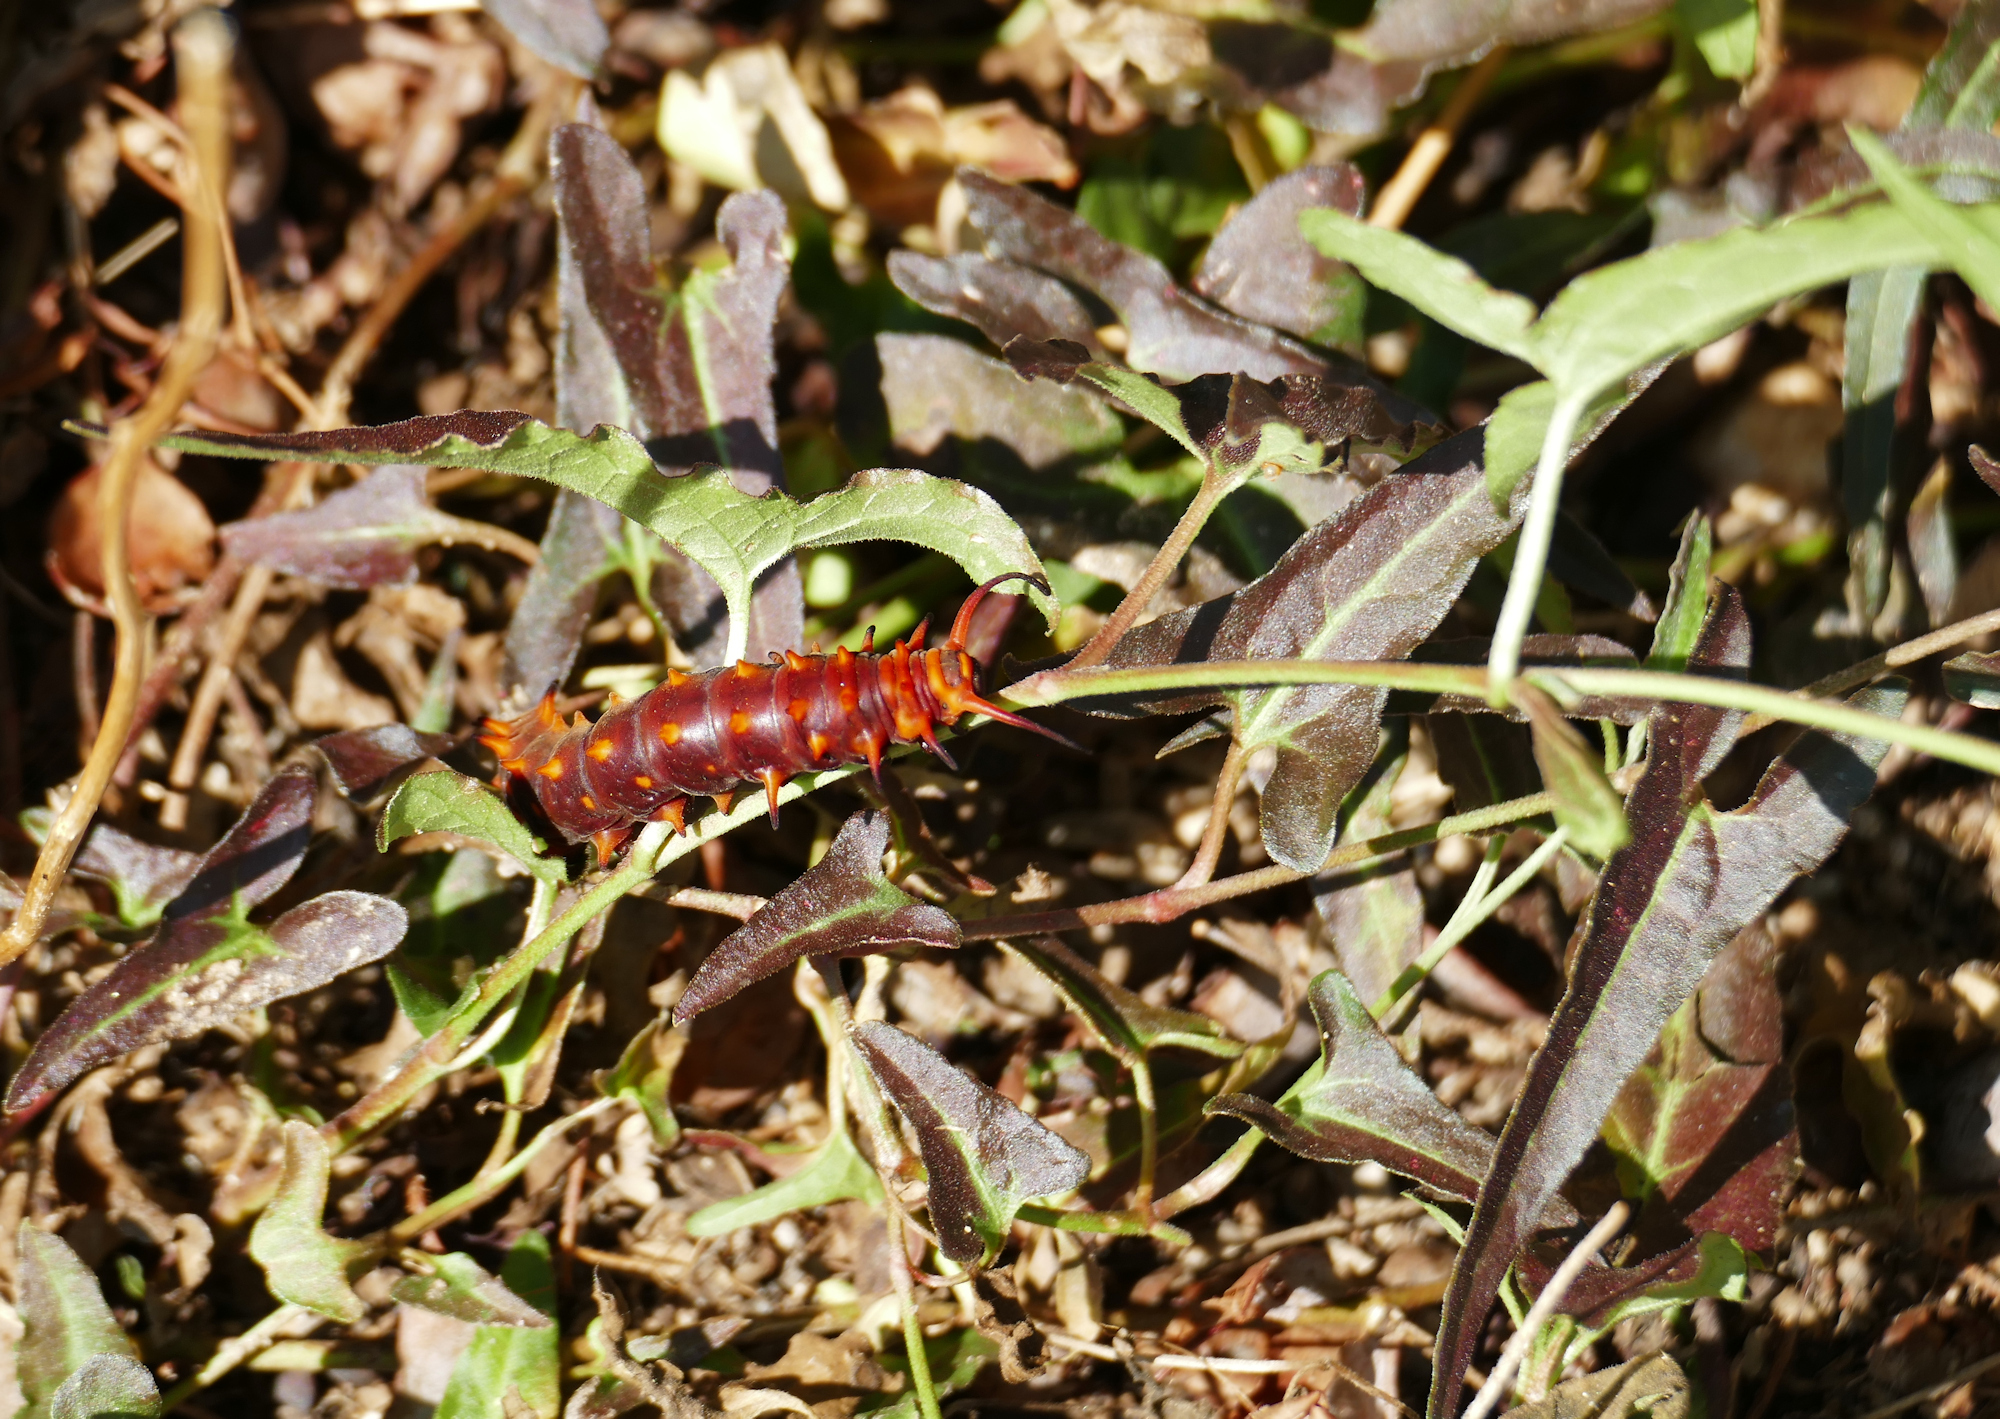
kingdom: Animalia
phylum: Arthropoda
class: Insecta
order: Lepidoptera
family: Papilionidae
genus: Battus
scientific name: Battus philenor
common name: Pipevine swallowtail
